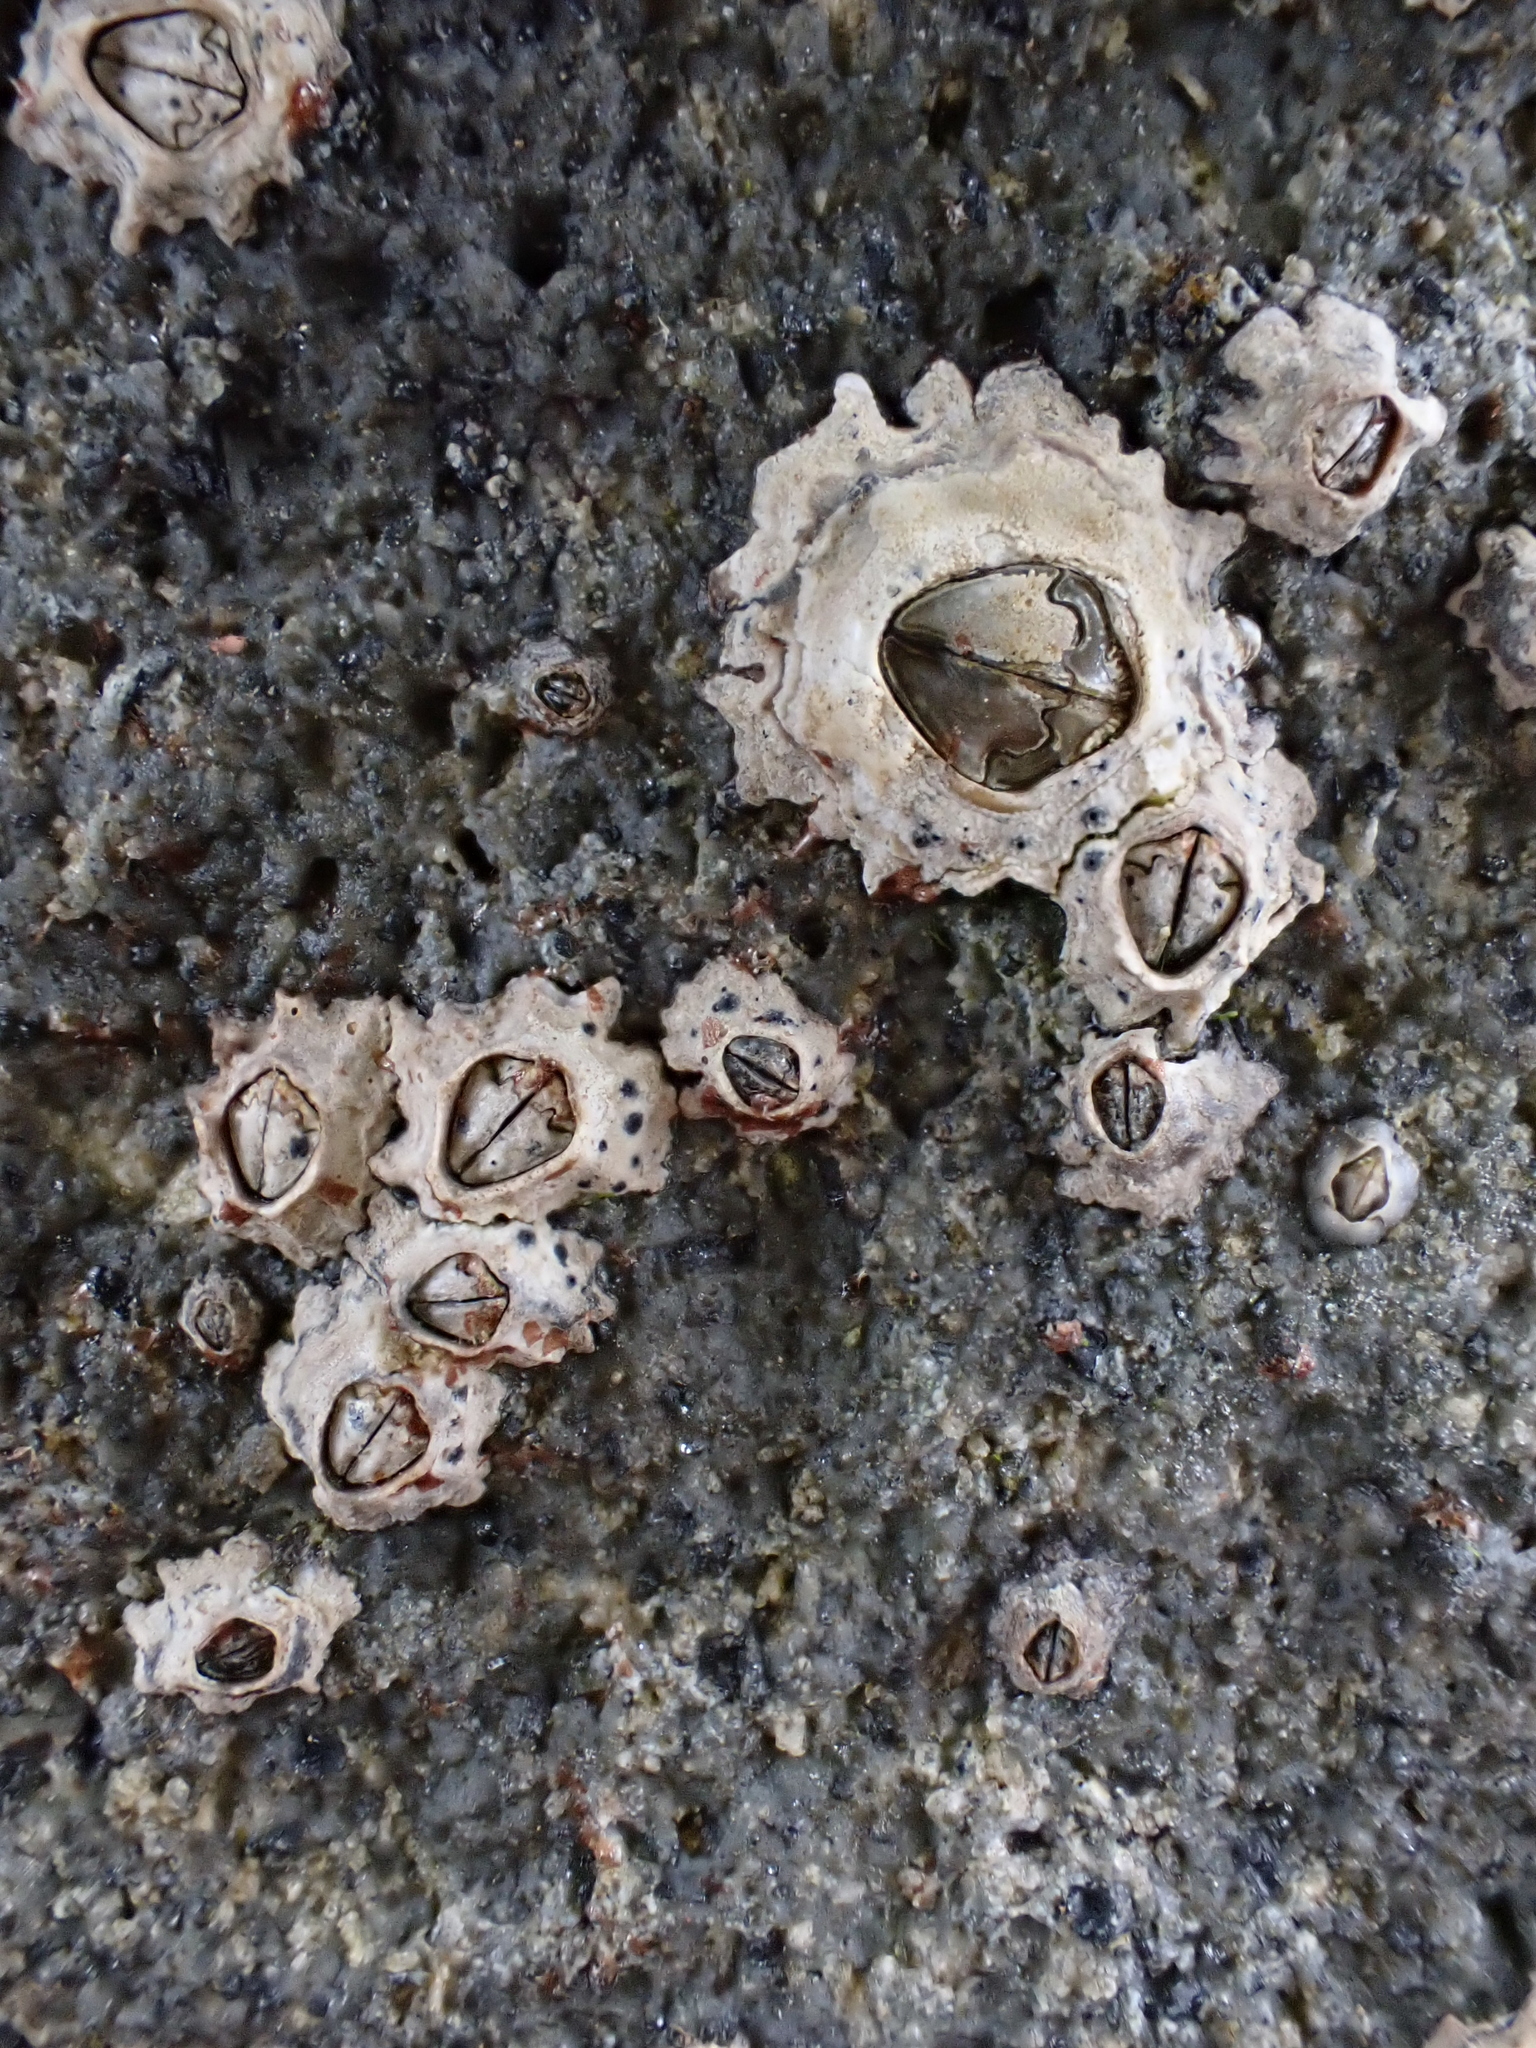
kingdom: Animalia
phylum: Arthropoda
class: Maxillopoda
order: Sessilia
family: Chthamalidae
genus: Chamaesipho
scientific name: Chamaesipho columna
